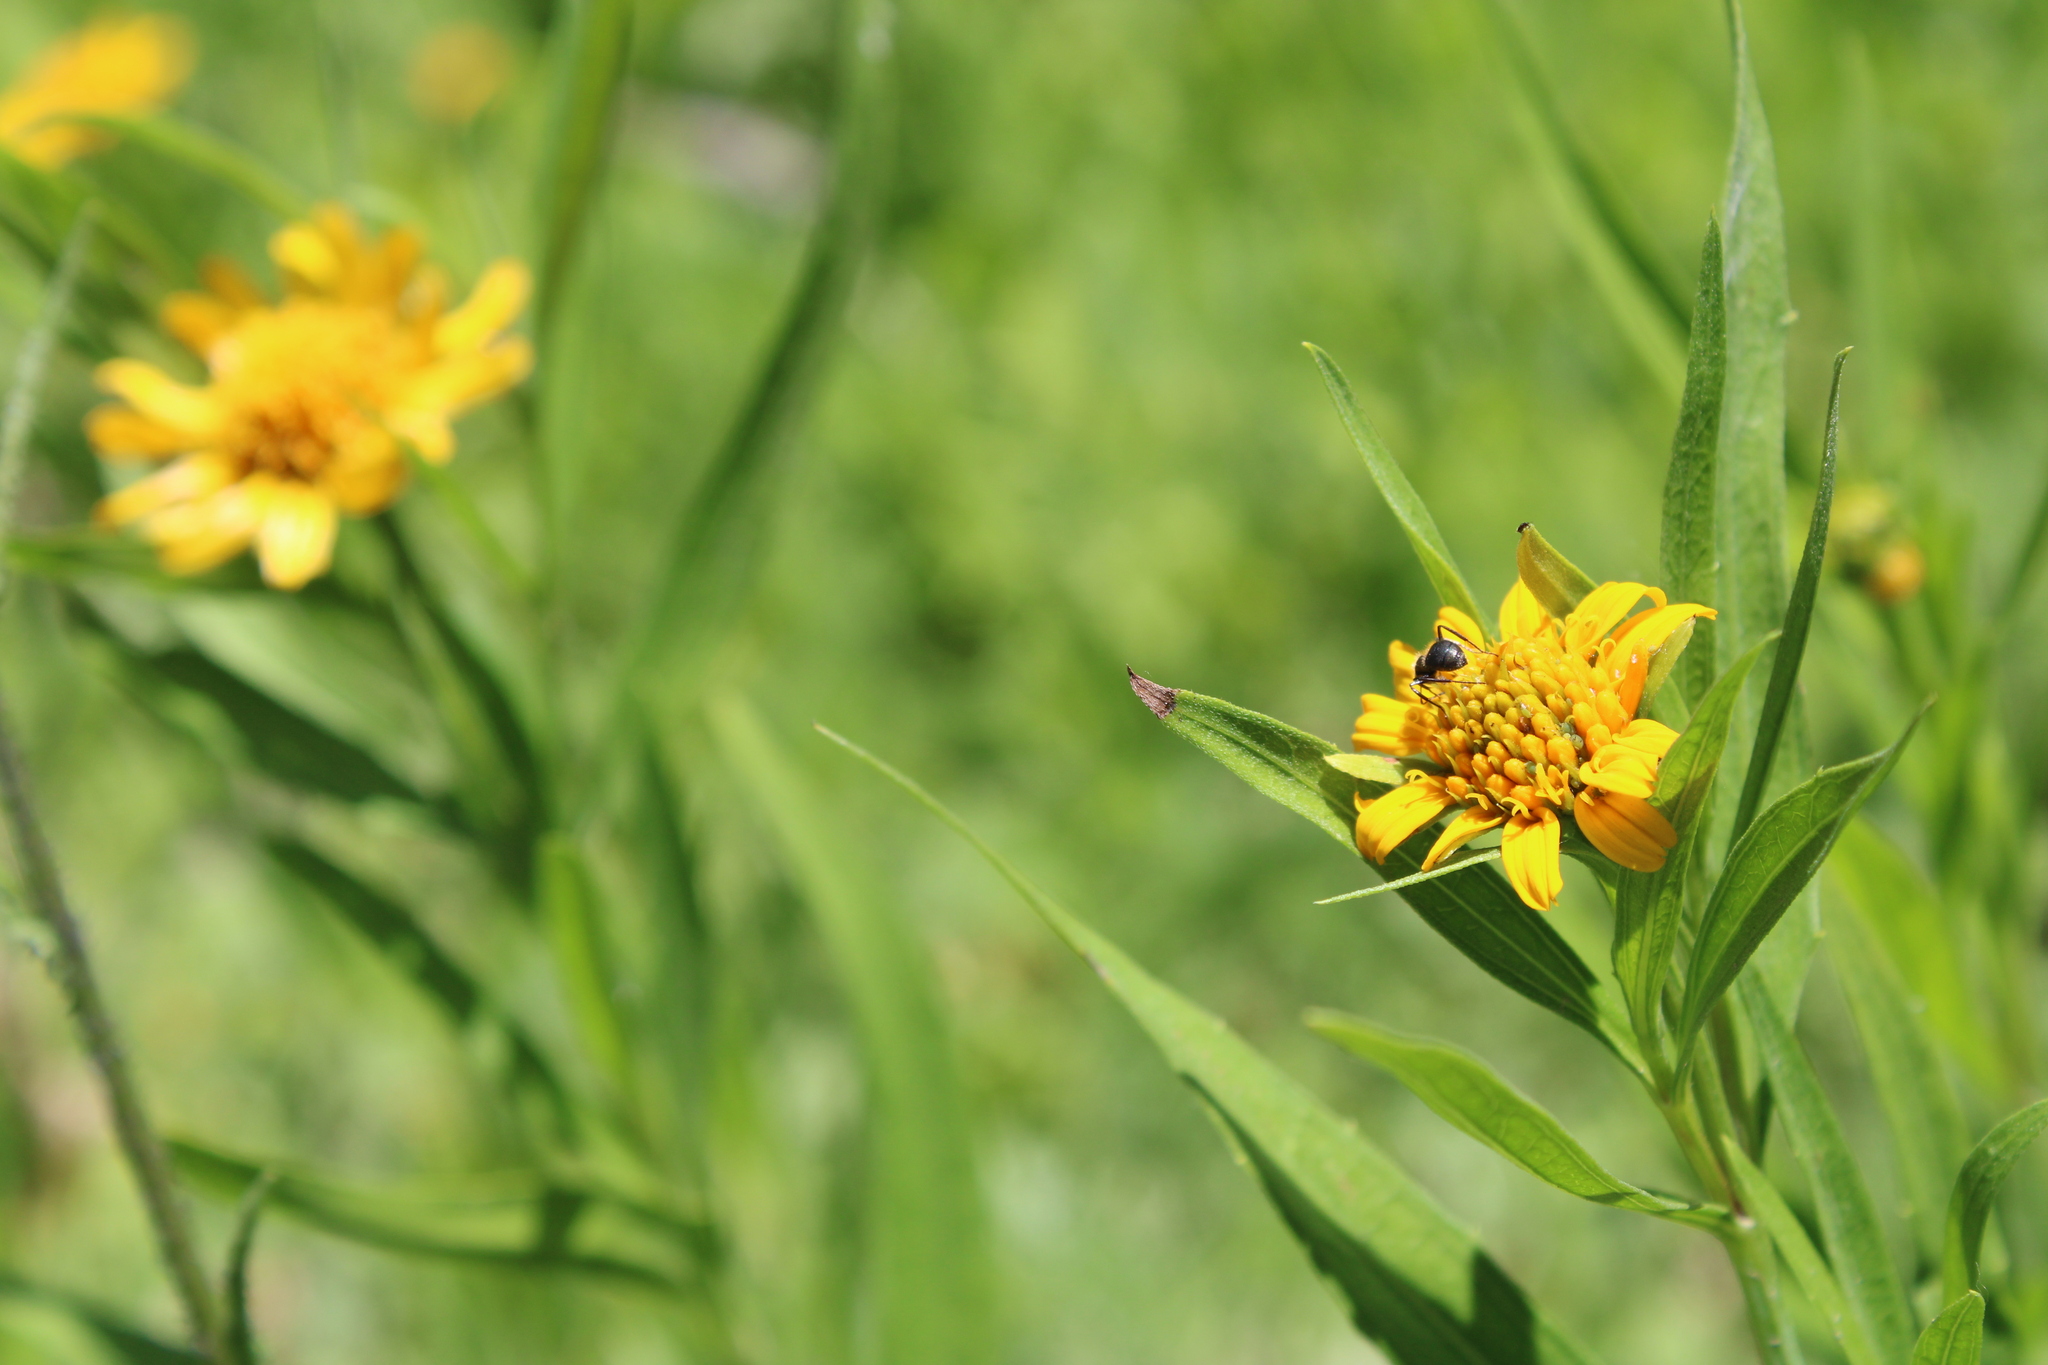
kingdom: Plantae
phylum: Tracheophyta
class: Magnoliopsida
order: Asterales
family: Asteraceae
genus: Pascalia
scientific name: Pascalia glauca
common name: Beach creeping oxeye
